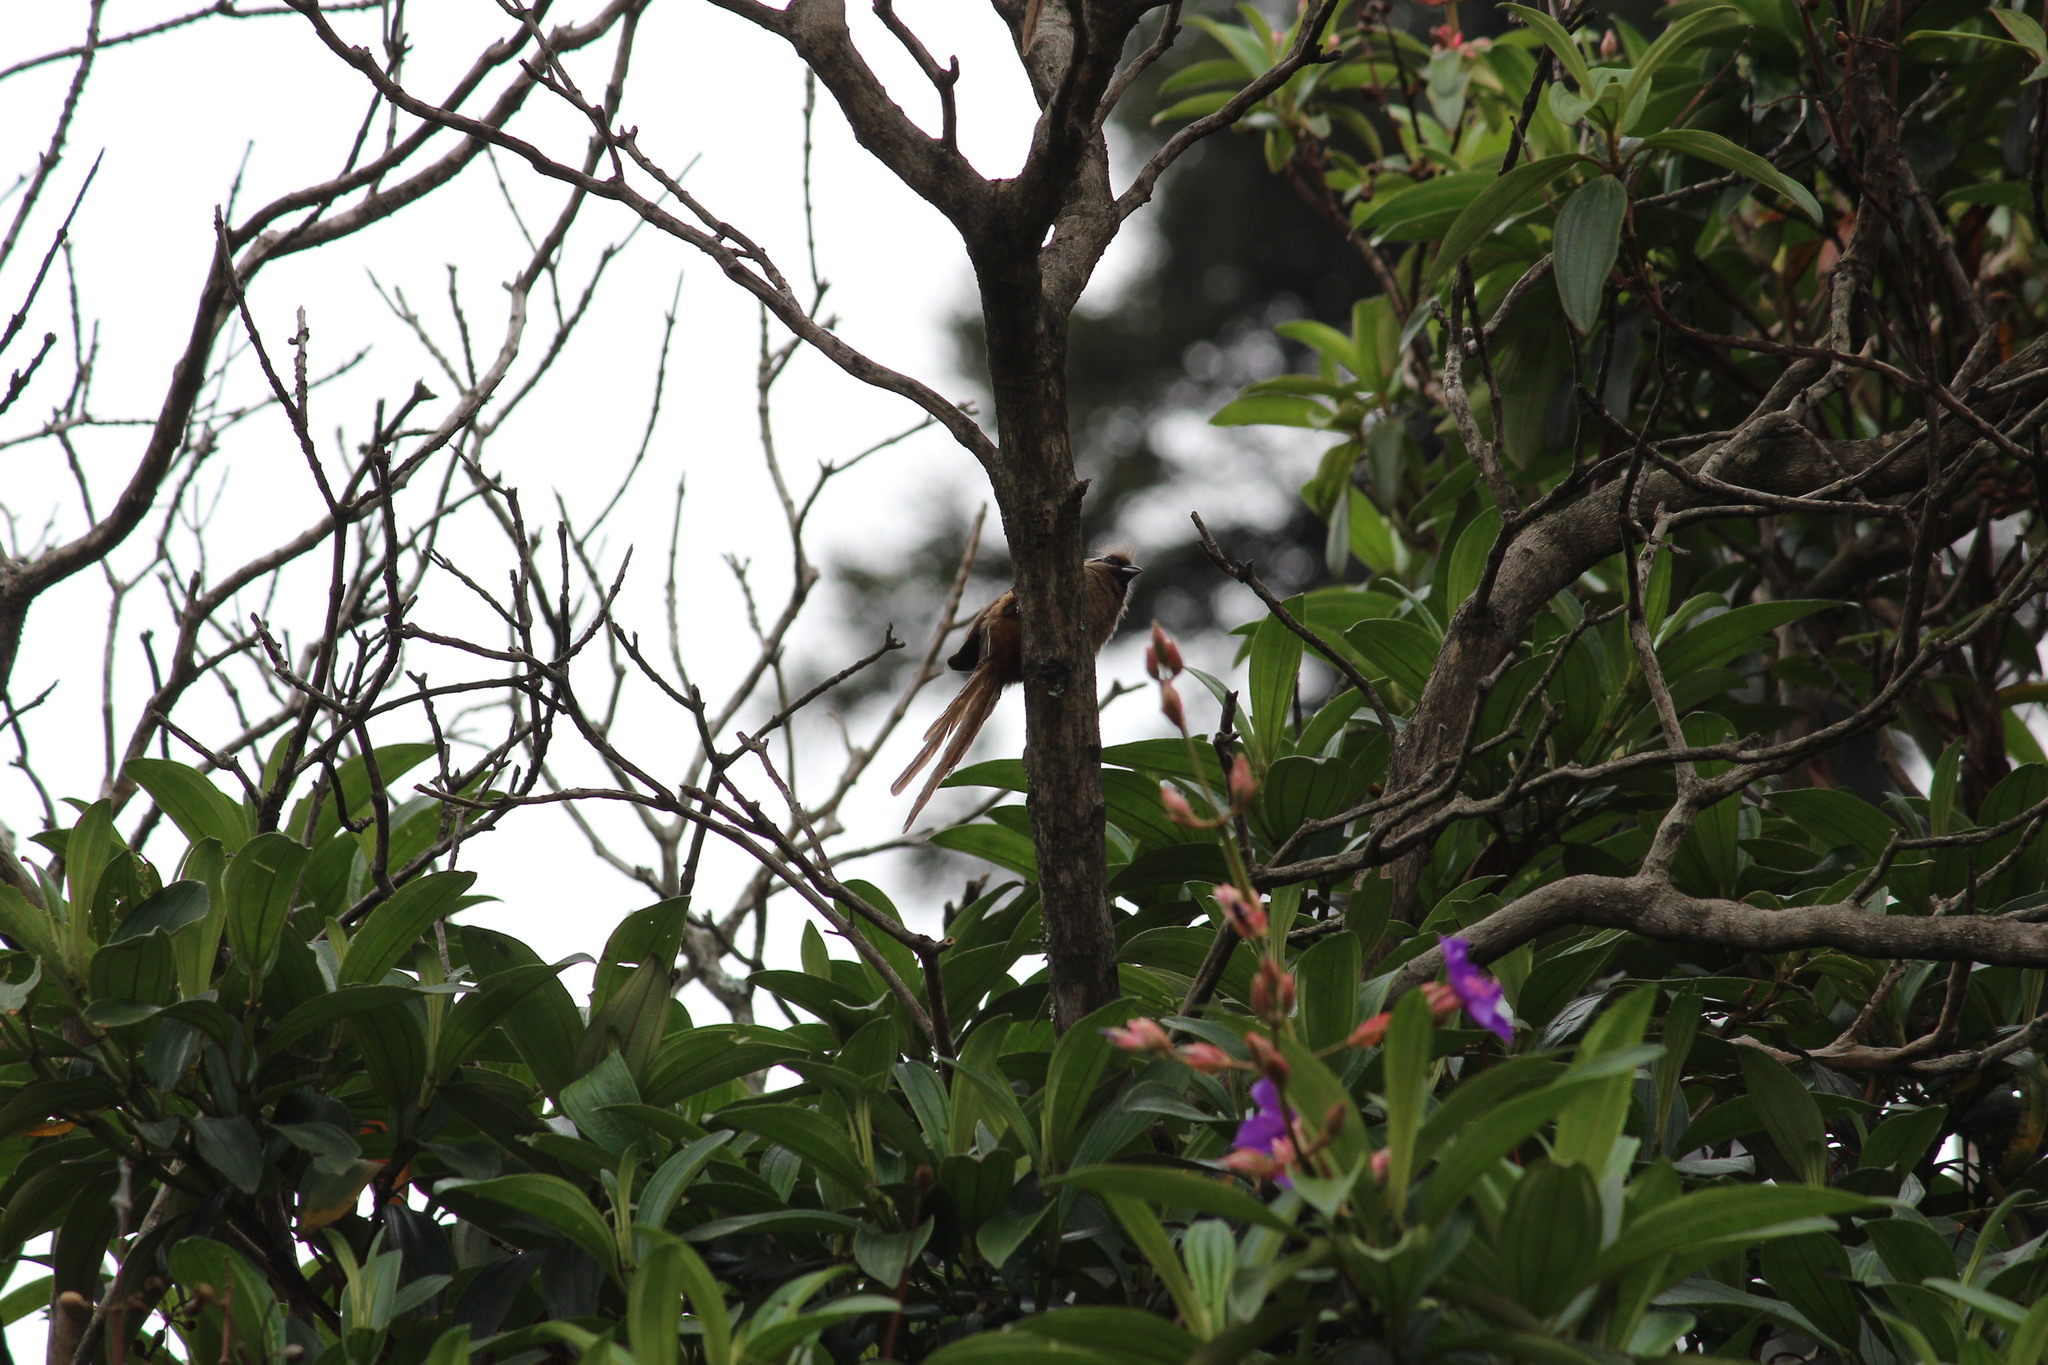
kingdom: Animalia
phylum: Chordata
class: Aves
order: Coliiformes
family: Coliidae
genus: Colius
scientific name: Colius striatus
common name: Speckled mousebird
